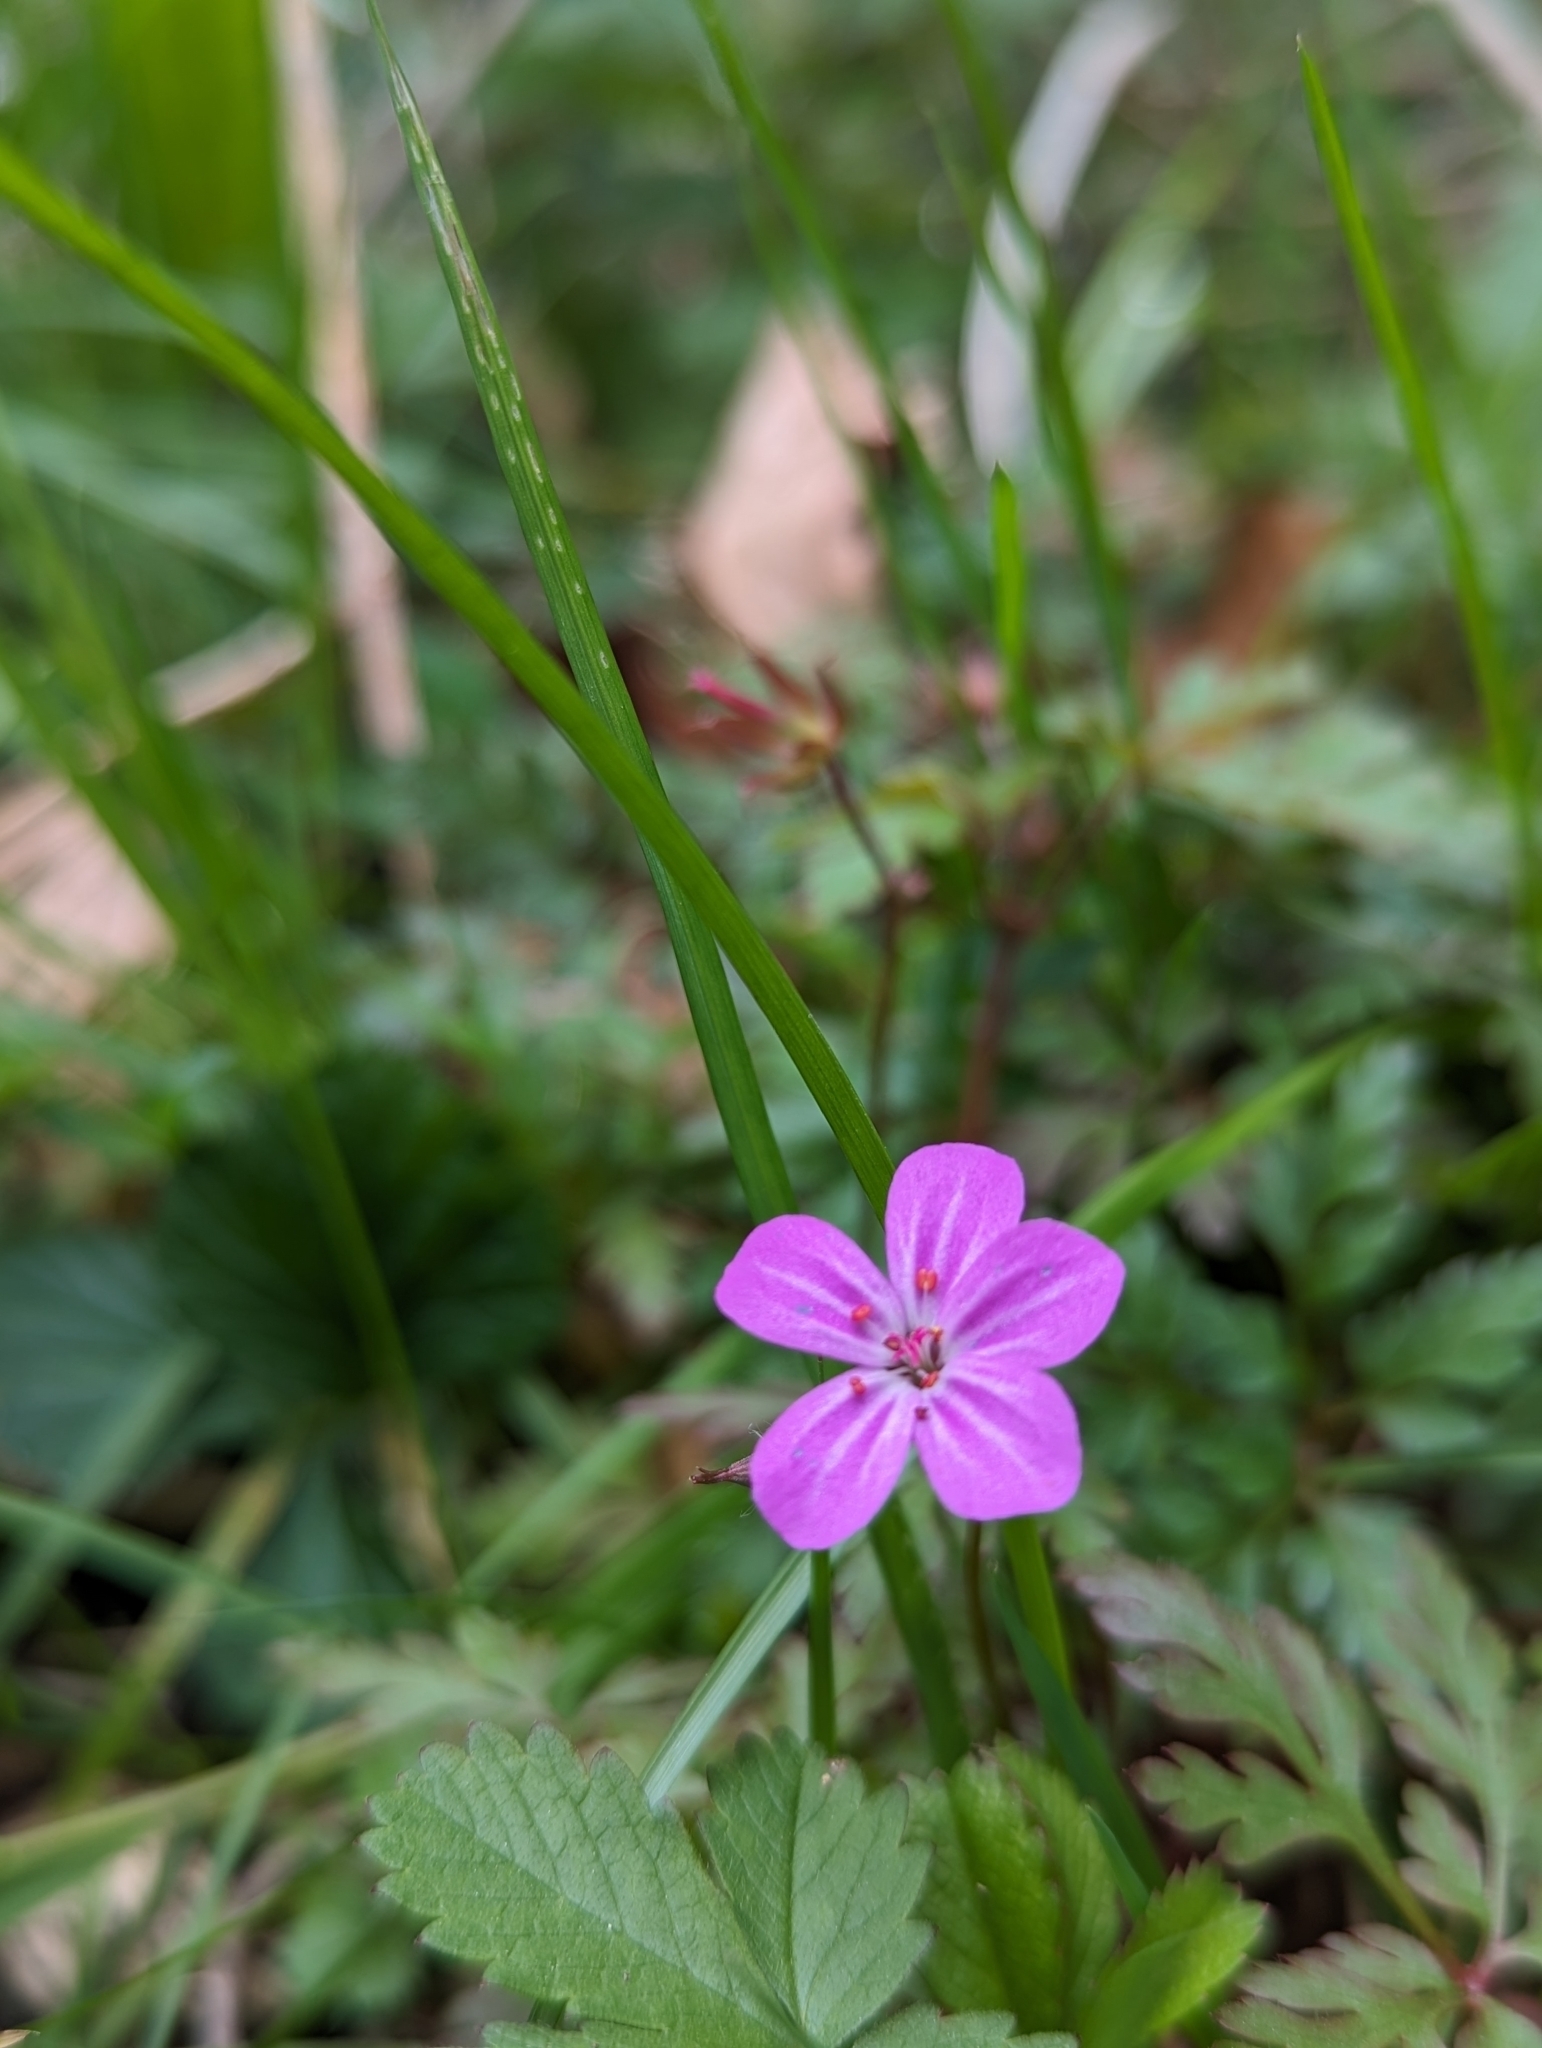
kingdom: Plantae
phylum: Tracheophyta
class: Magnoliopsida
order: Geraniales
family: Geraniaceae
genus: Geranium
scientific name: Geranium robertianum
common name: Herb-robert
